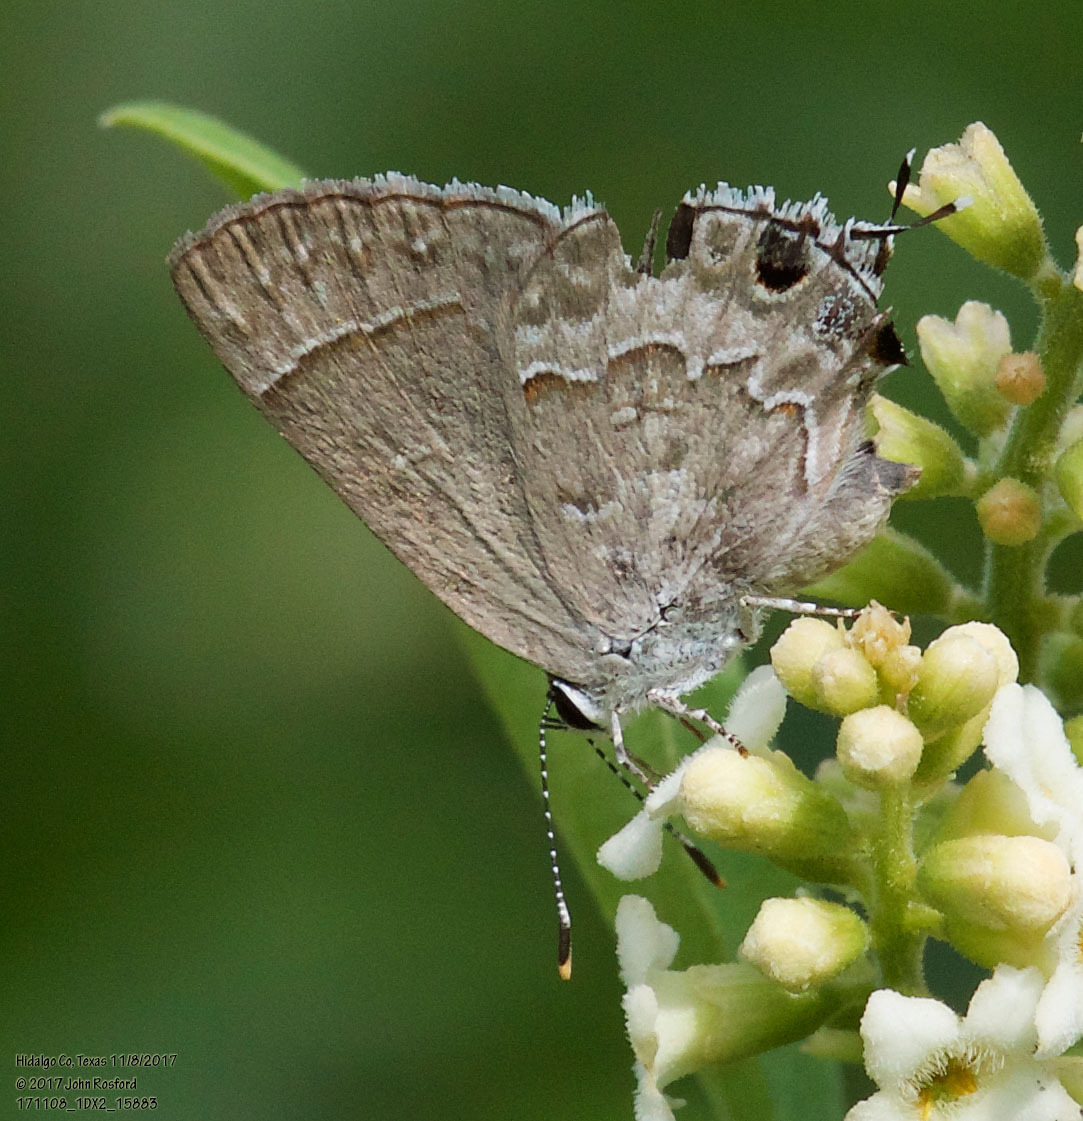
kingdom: Animalia
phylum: Arthropoda
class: Insecta
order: Lepidoptera
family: Lycaenidae
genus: Strymon
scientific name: Strymon alea
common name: Lacey's scrub-hairstreak
